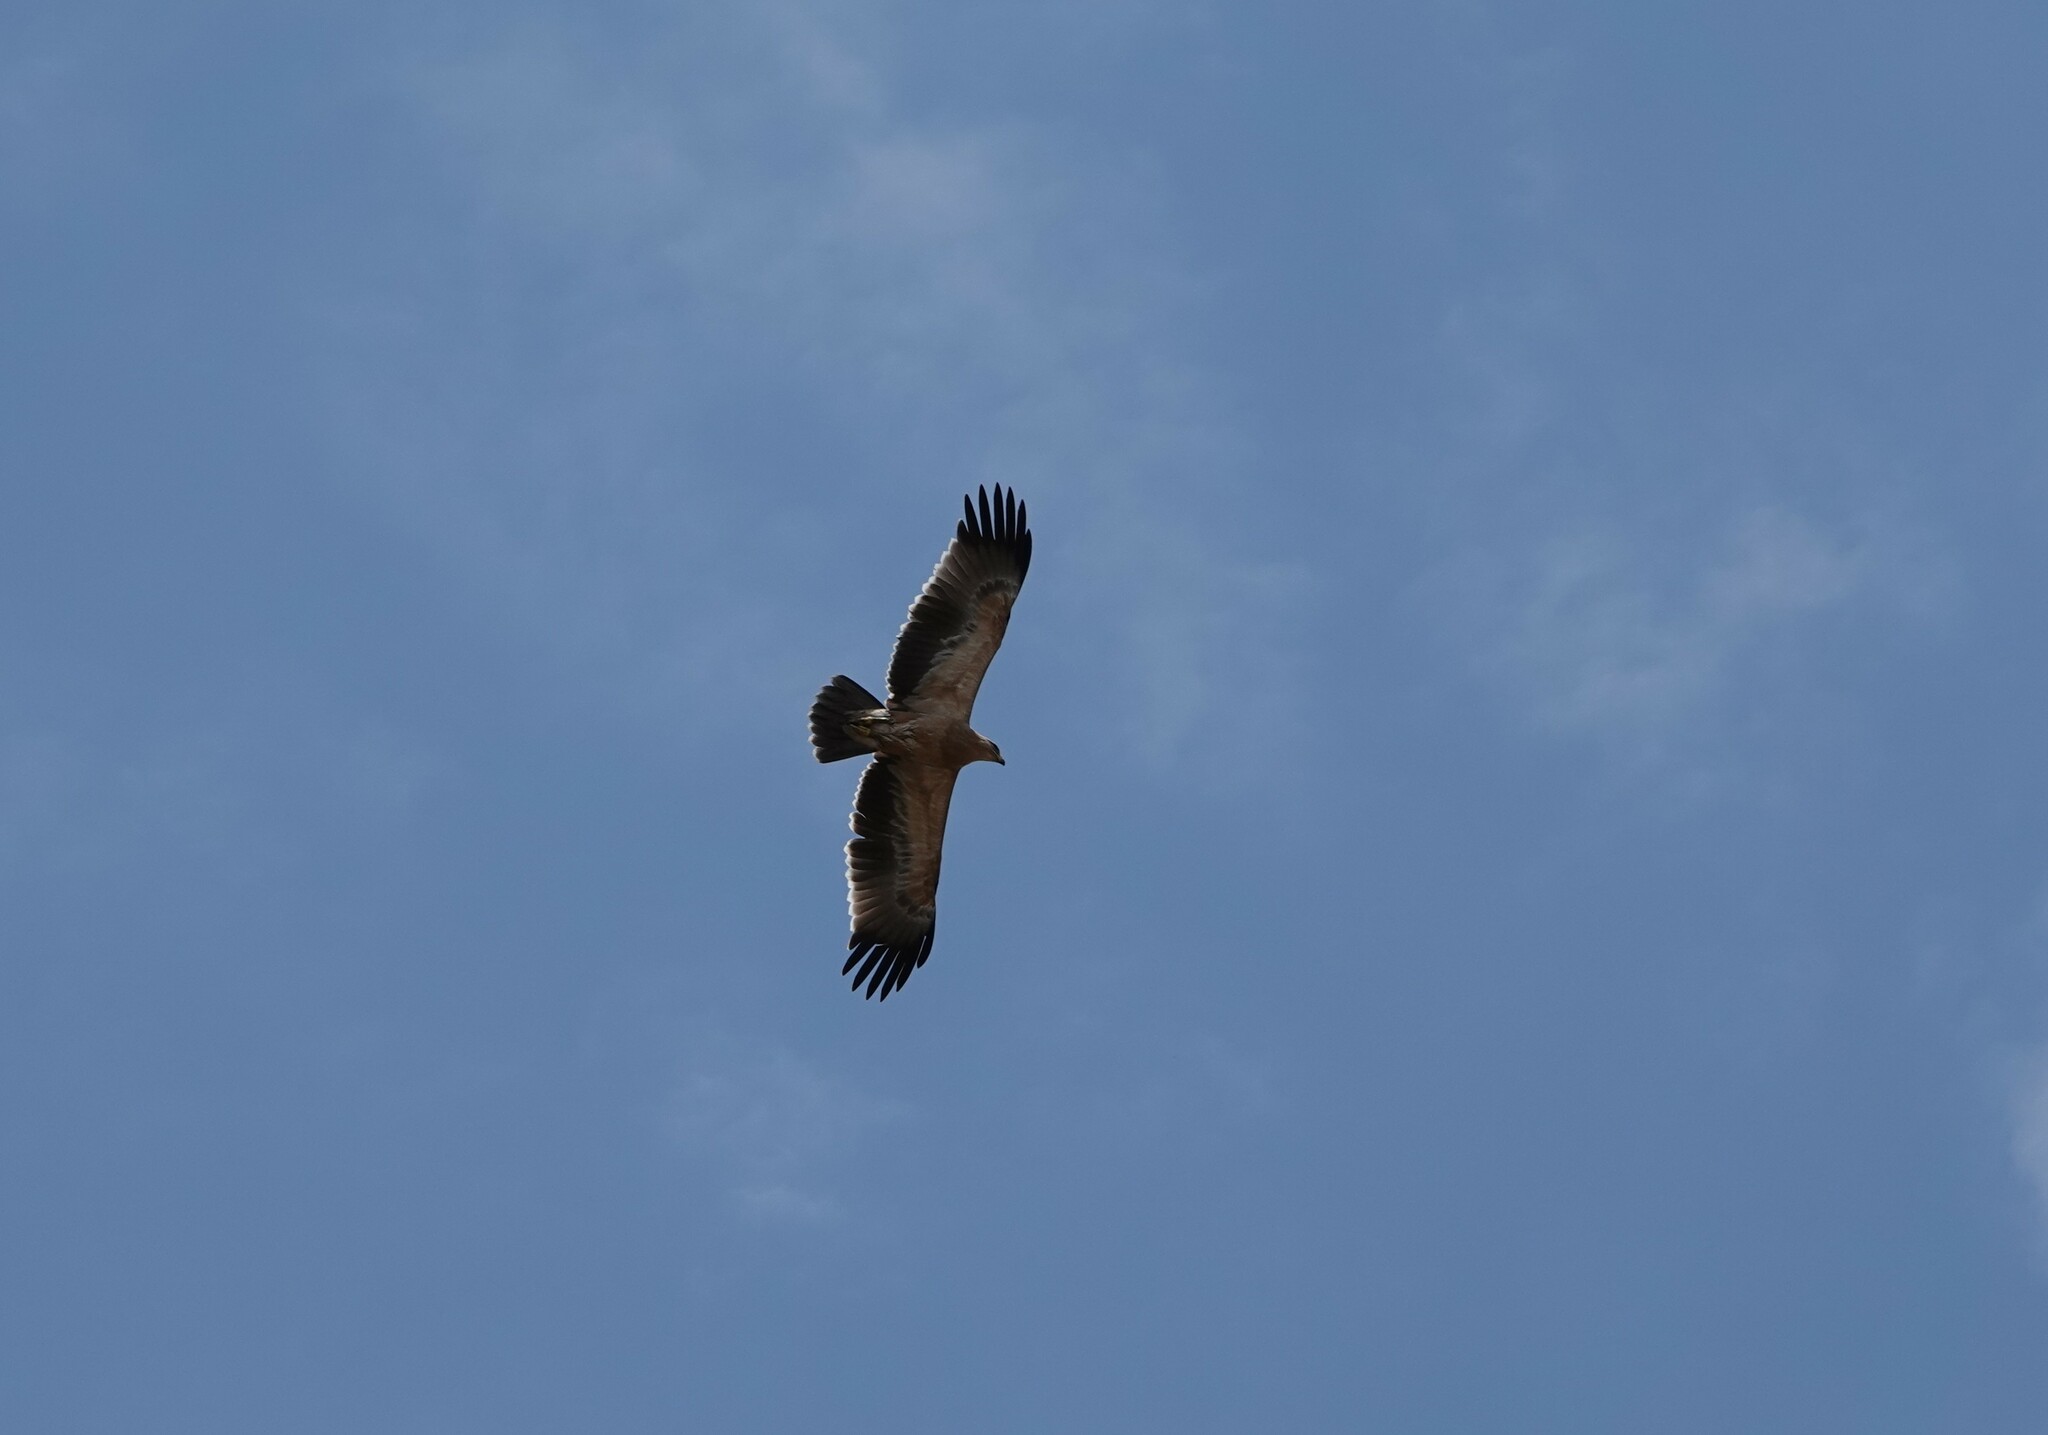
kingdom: Animalia
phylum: Chordata
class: Aves
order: Accipitriformes
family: Accipitridae
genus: Aquila
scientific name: Aquila rapax
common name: Tawny eagle
